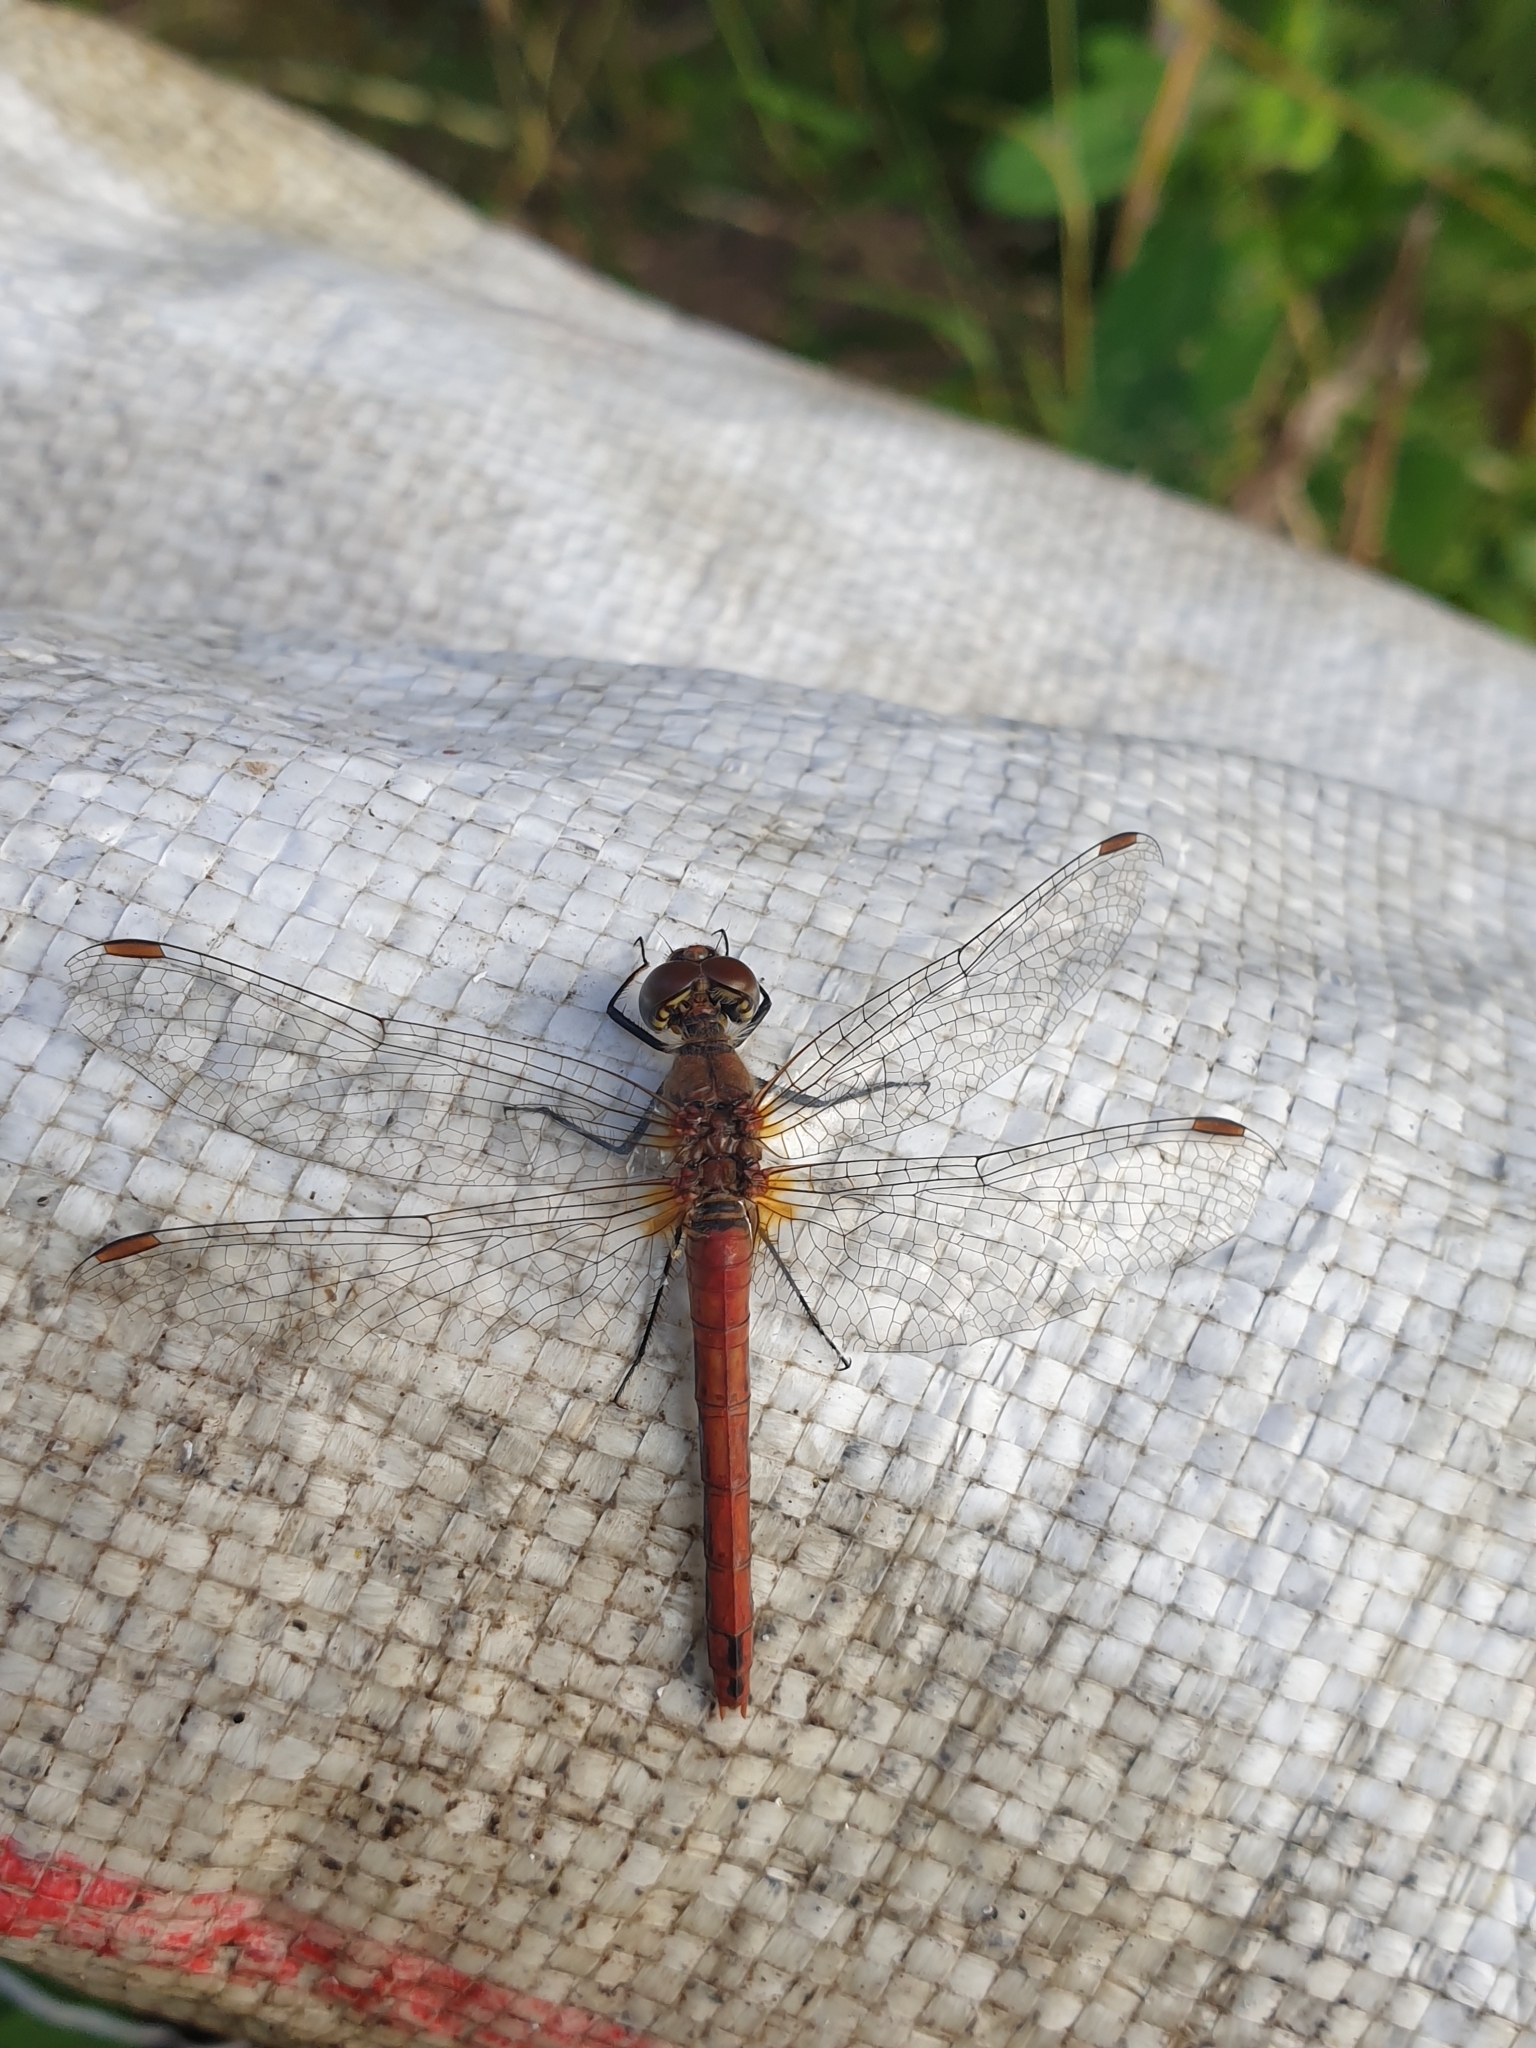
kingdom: Animalia
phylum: Arthropoda
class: Insecta
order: Odonata
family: Libellulidae
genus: Sympetrum
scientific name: Sympetrum sanguineum
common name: Ruddy darter
